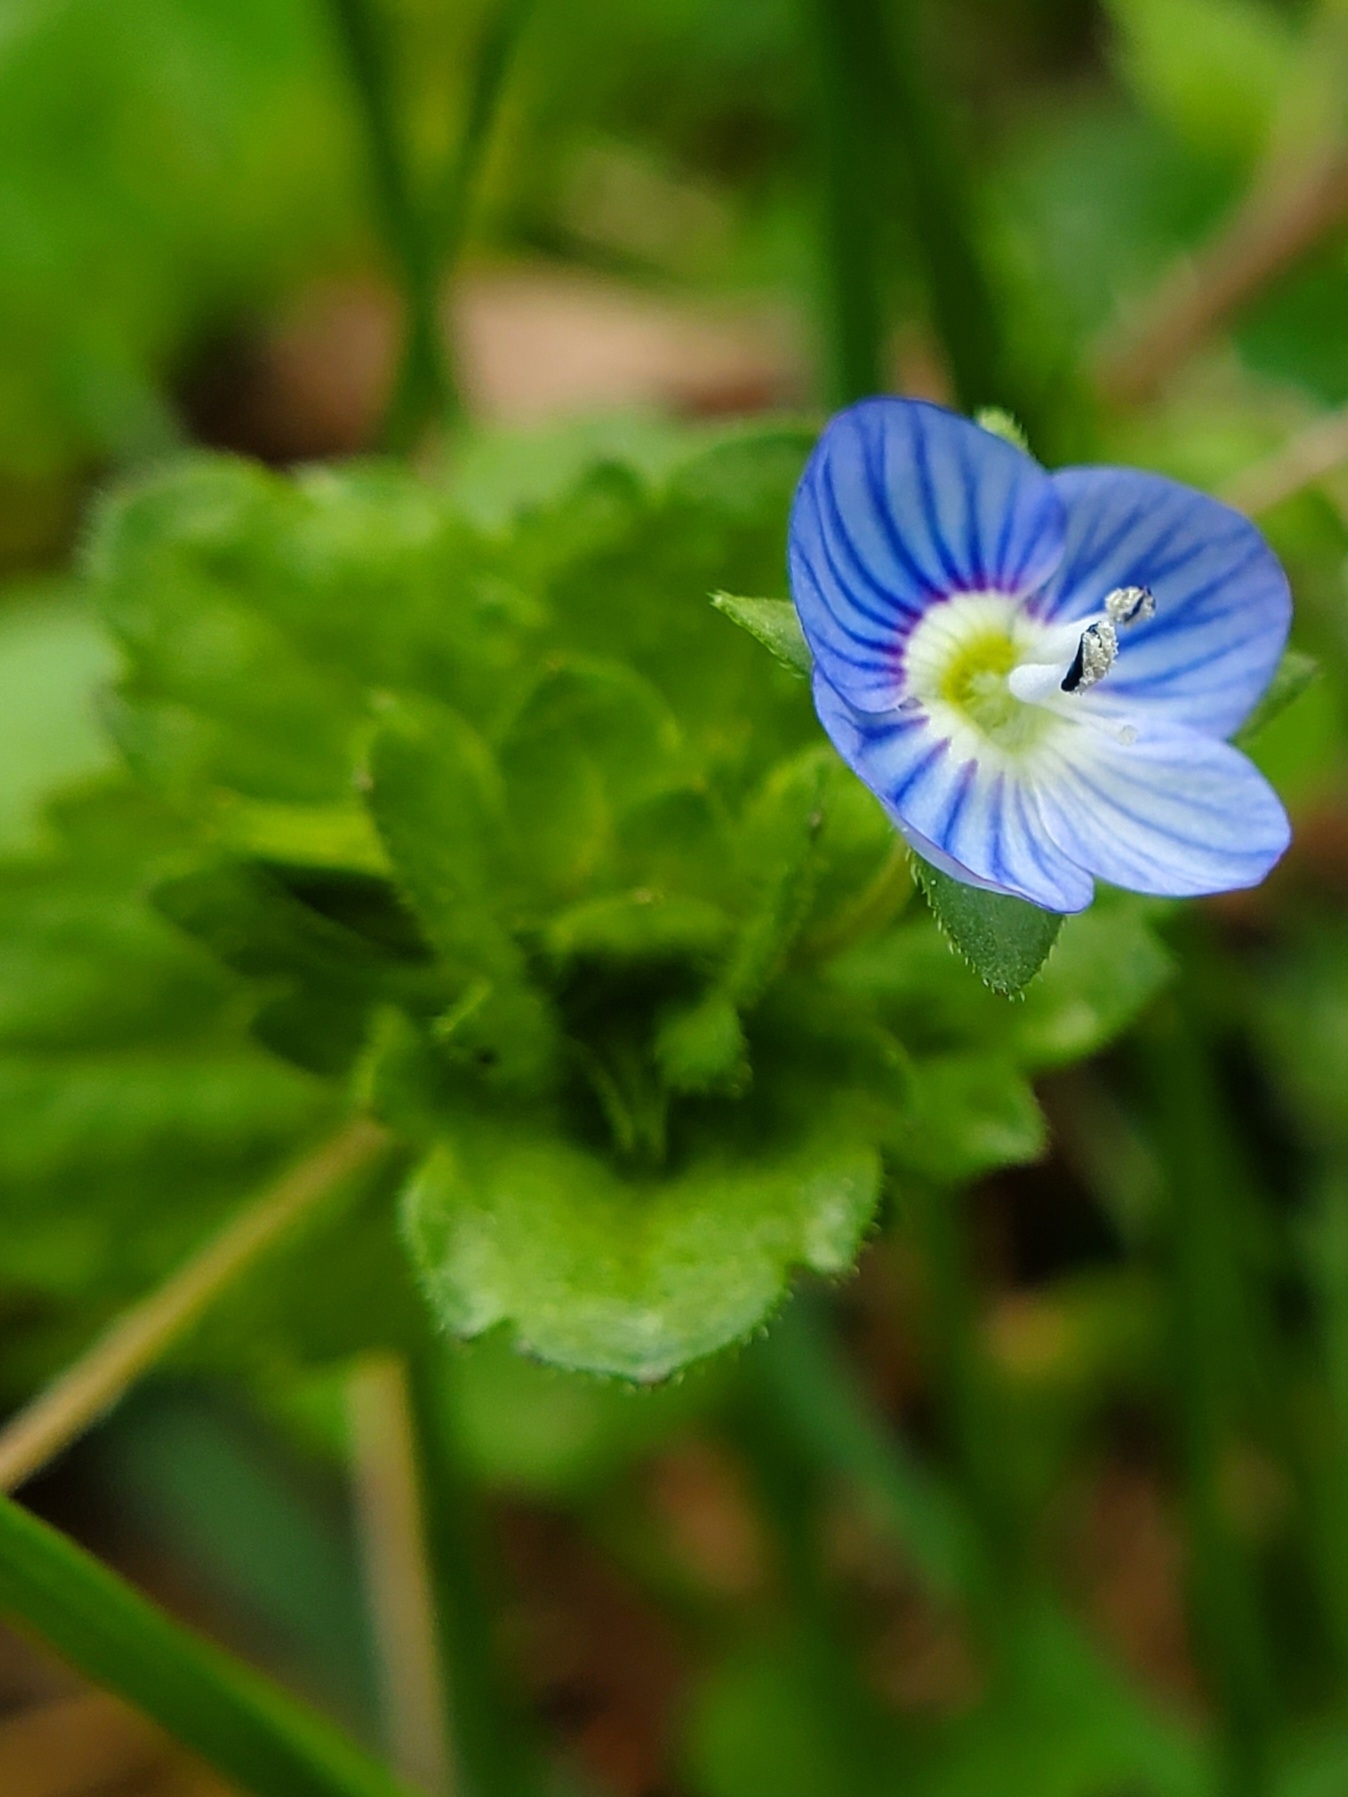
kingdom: Plantae
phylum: Tracheophyta
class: Magnoliopsida
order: Lamiales
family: Plantaginaceae
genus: Veronica
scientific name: Veronica persica
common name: Common field-speedwell
